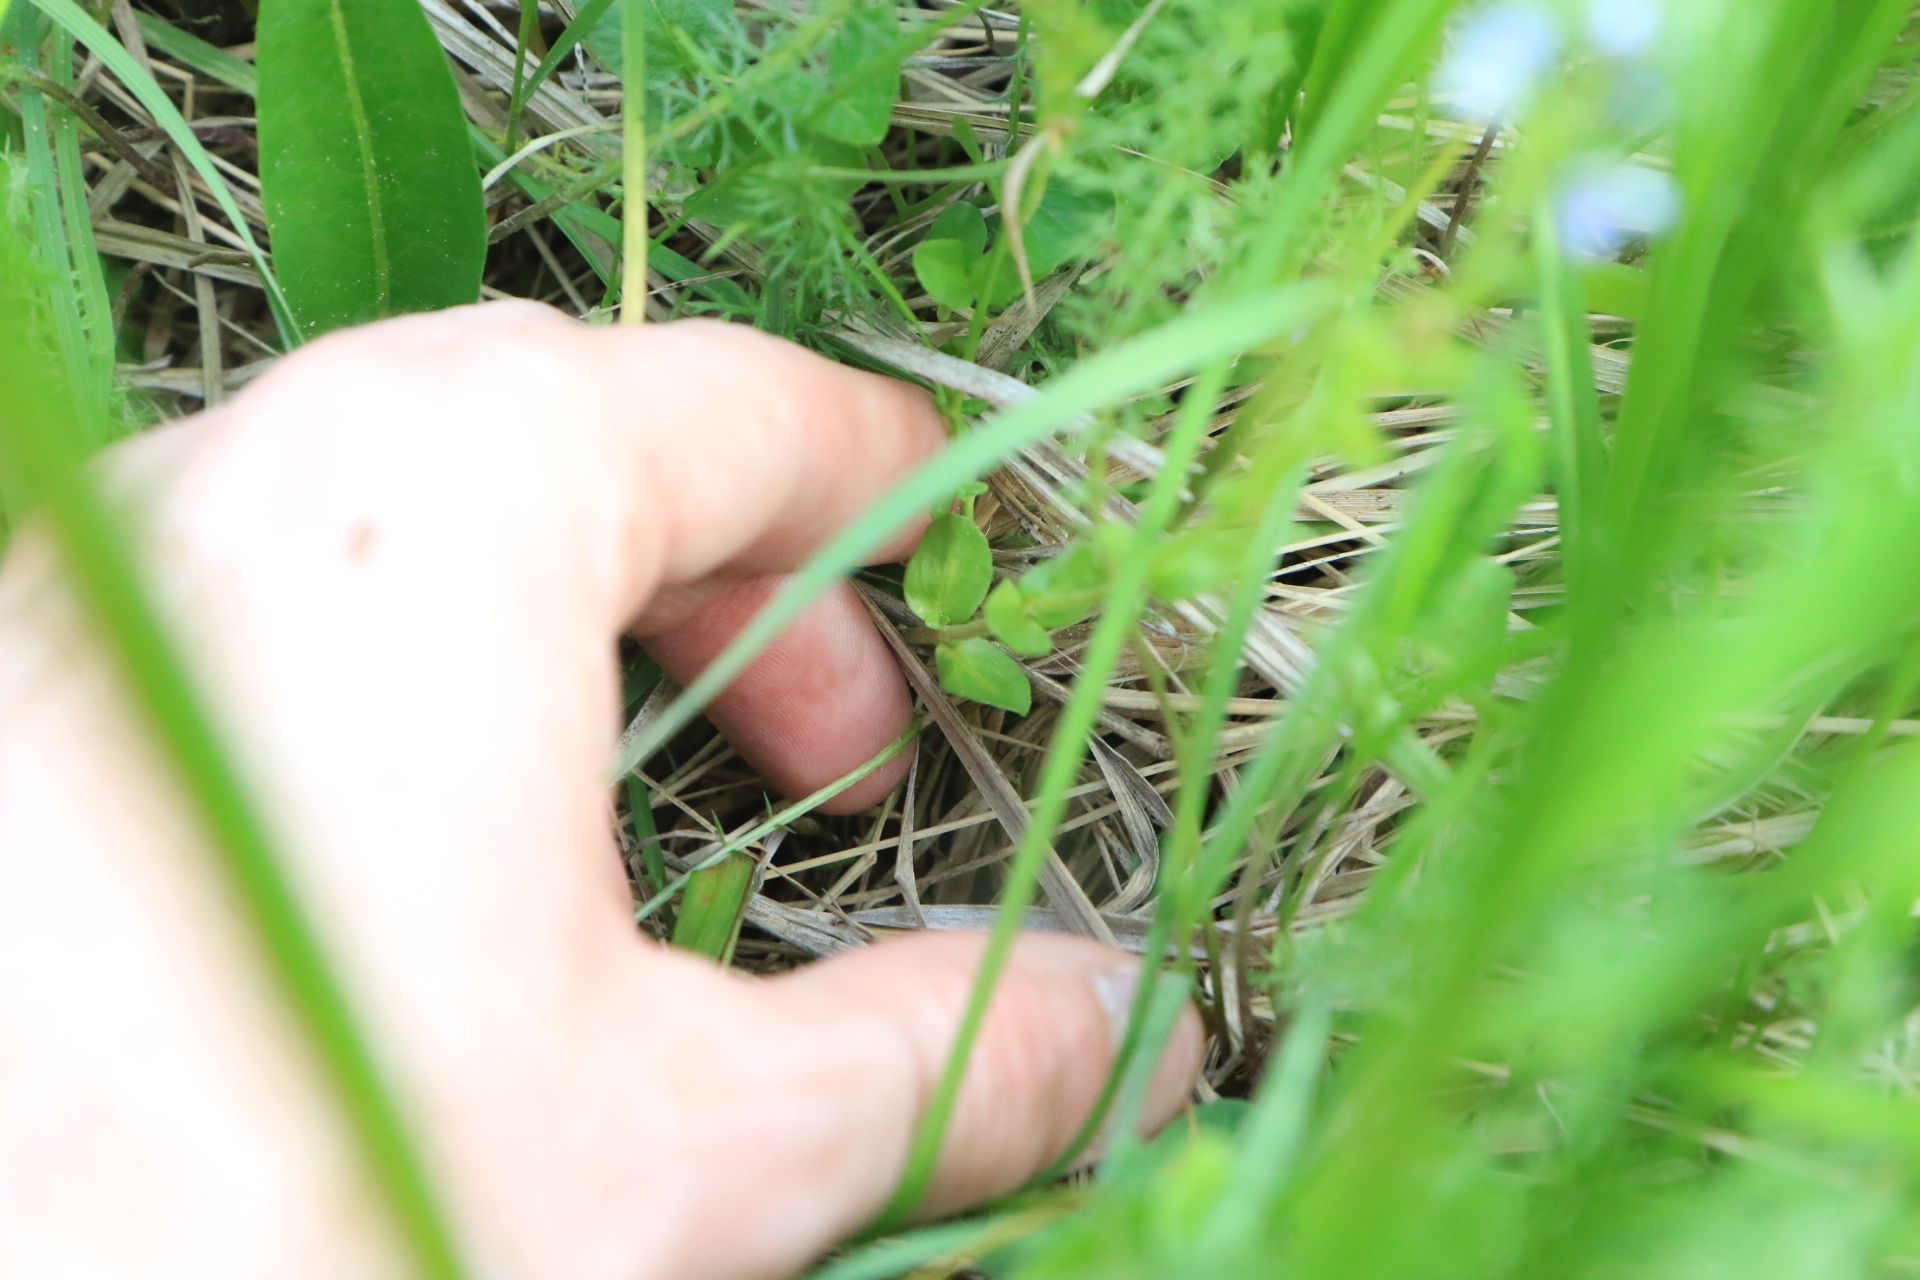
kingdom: Plantae
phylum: Tracheophyta
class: Magnoliopsida
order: Lamiales
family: Plantaginaceae
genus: Veronica
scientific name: Veronica serpyllifolia
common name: Thyme-leaved speedwell
